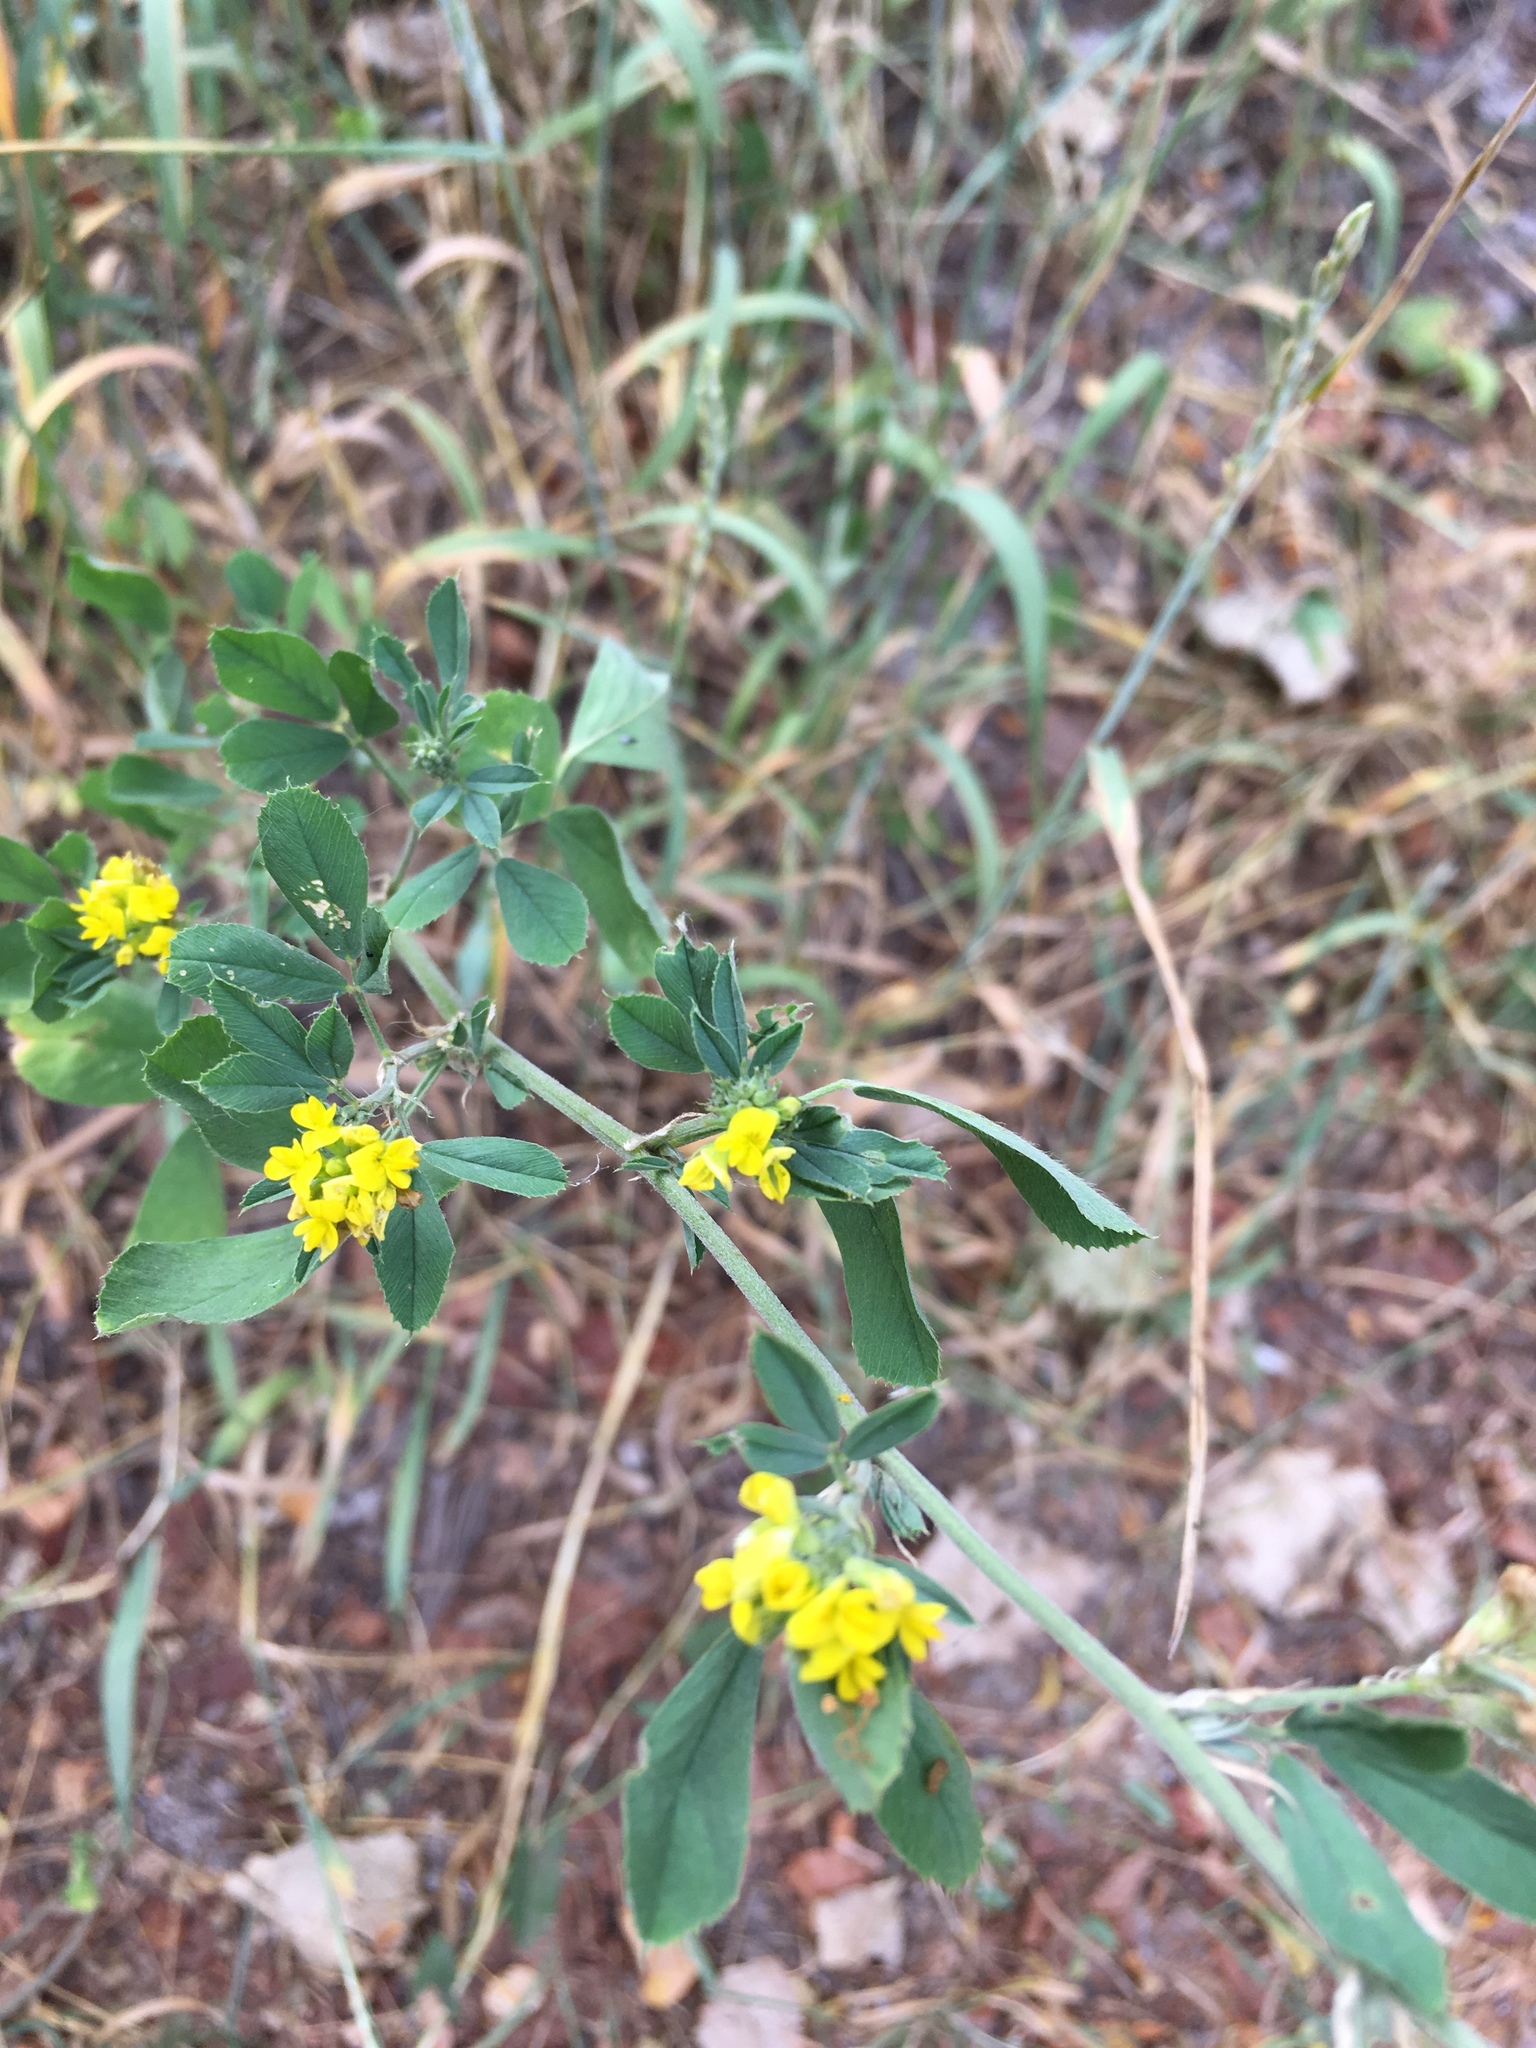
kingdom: Plantae
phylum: Tracheophyta
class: Magnoliopsida
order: Fabales
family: Fabaceae
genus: Medicago
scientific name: Medicago falcata
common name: Sickle medick
